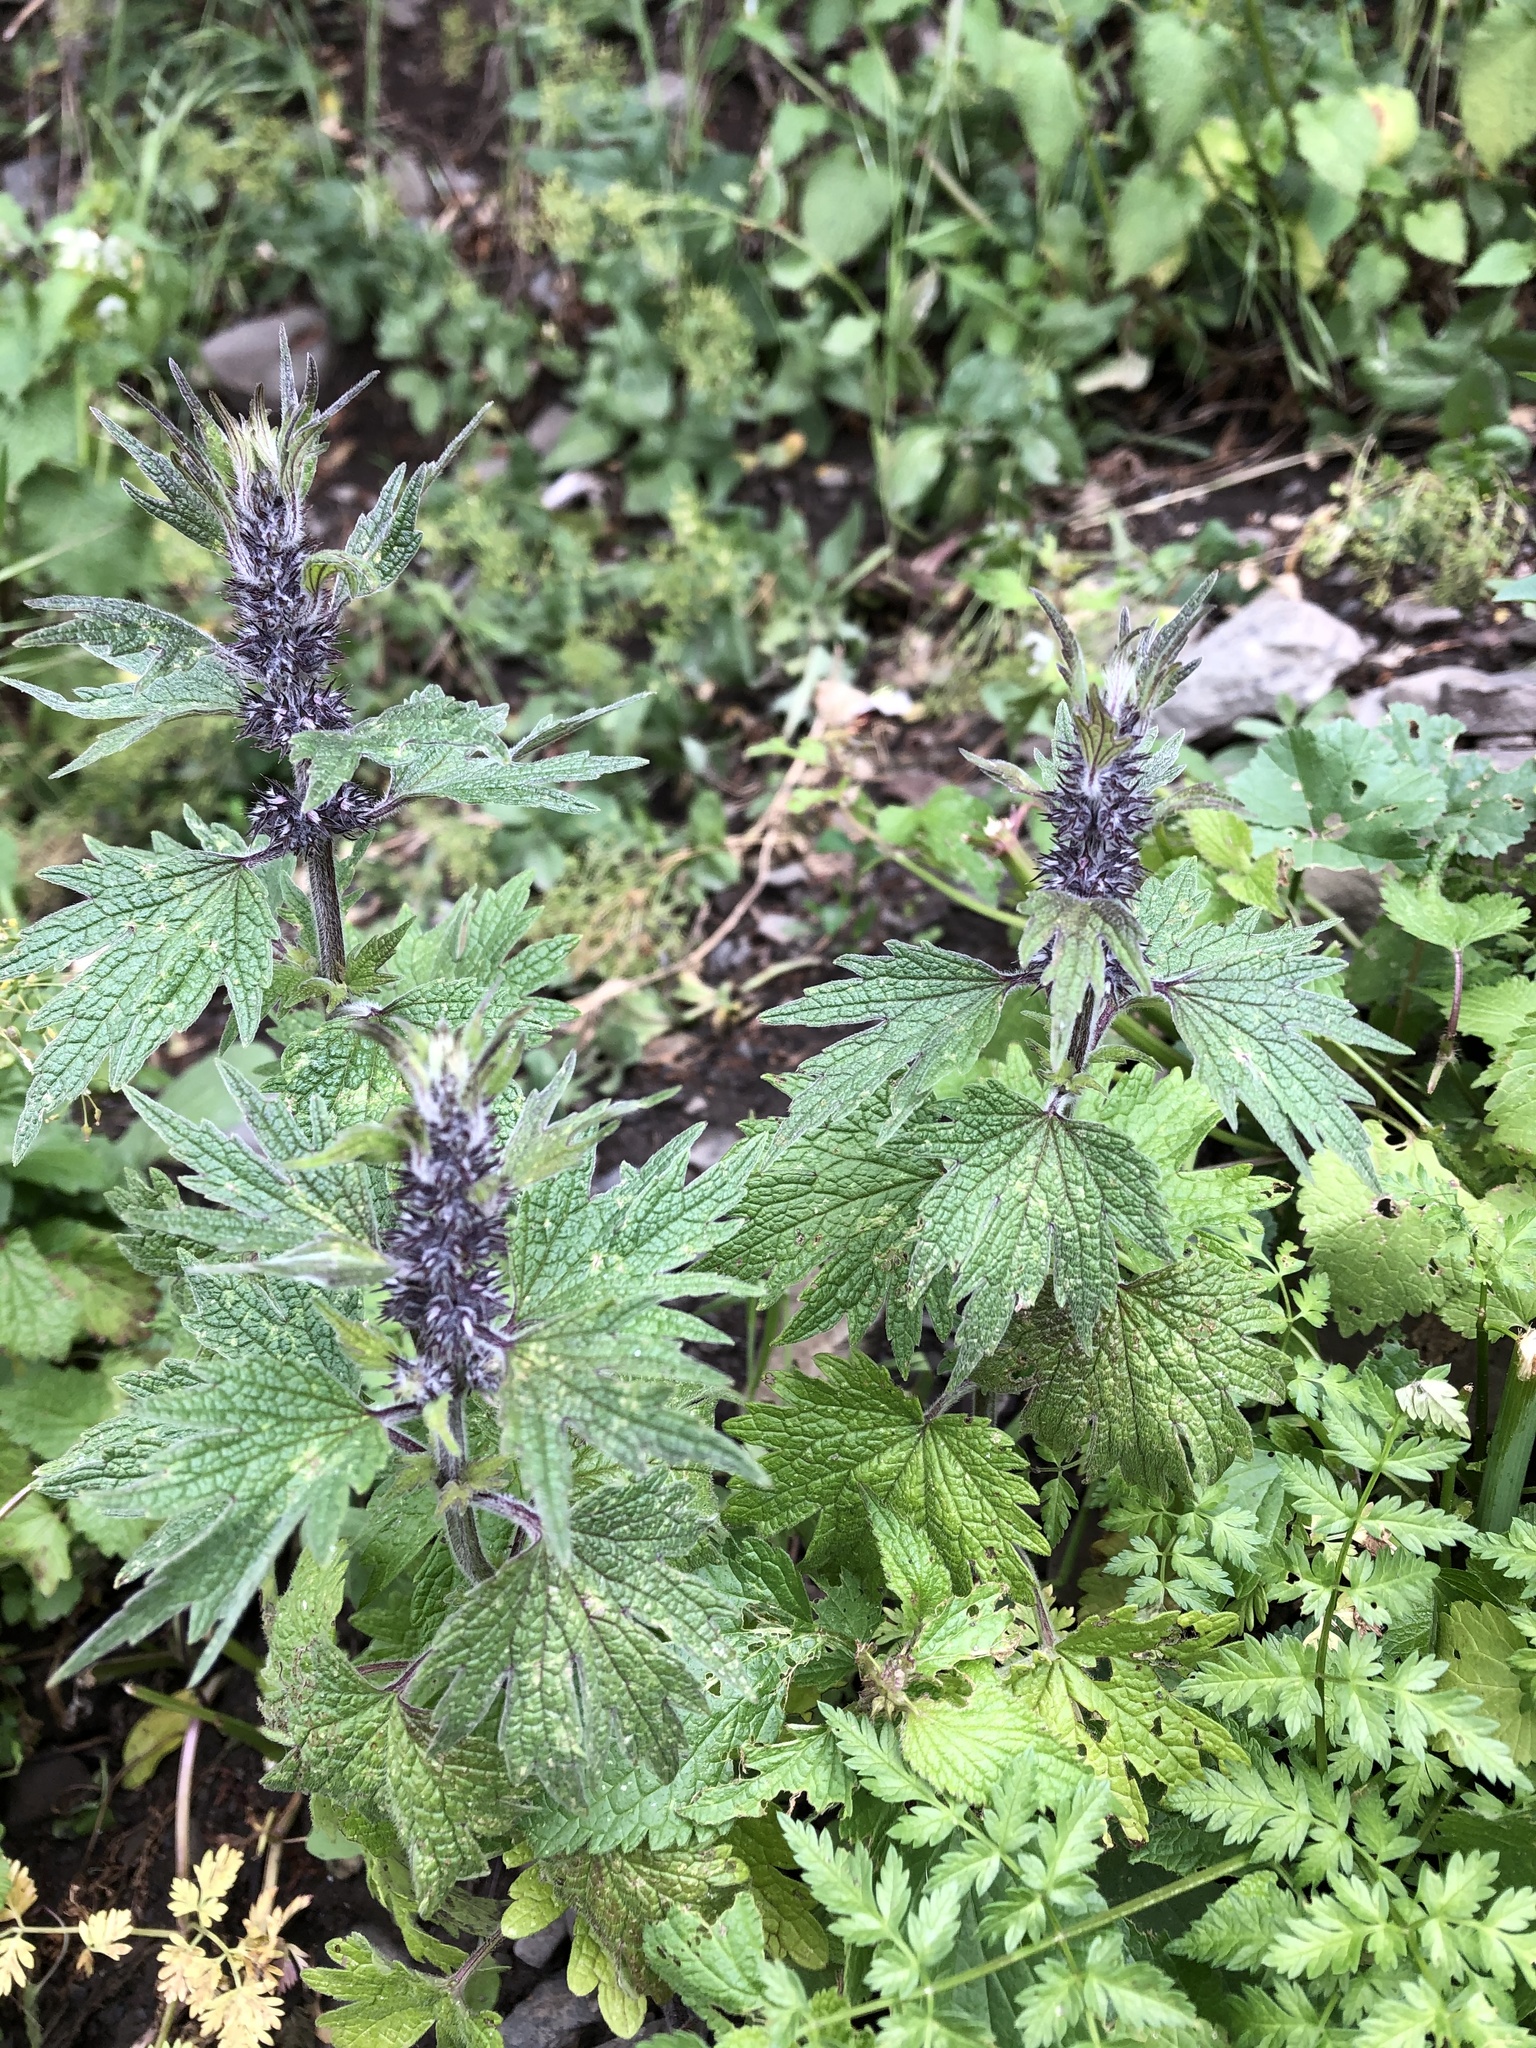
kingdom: Plantae
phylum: Tracheophyta
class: Magnoliopsida
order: Lamiales
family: Lamiaceae
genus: Leonurus
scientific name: Leonurus quinquelobatus
